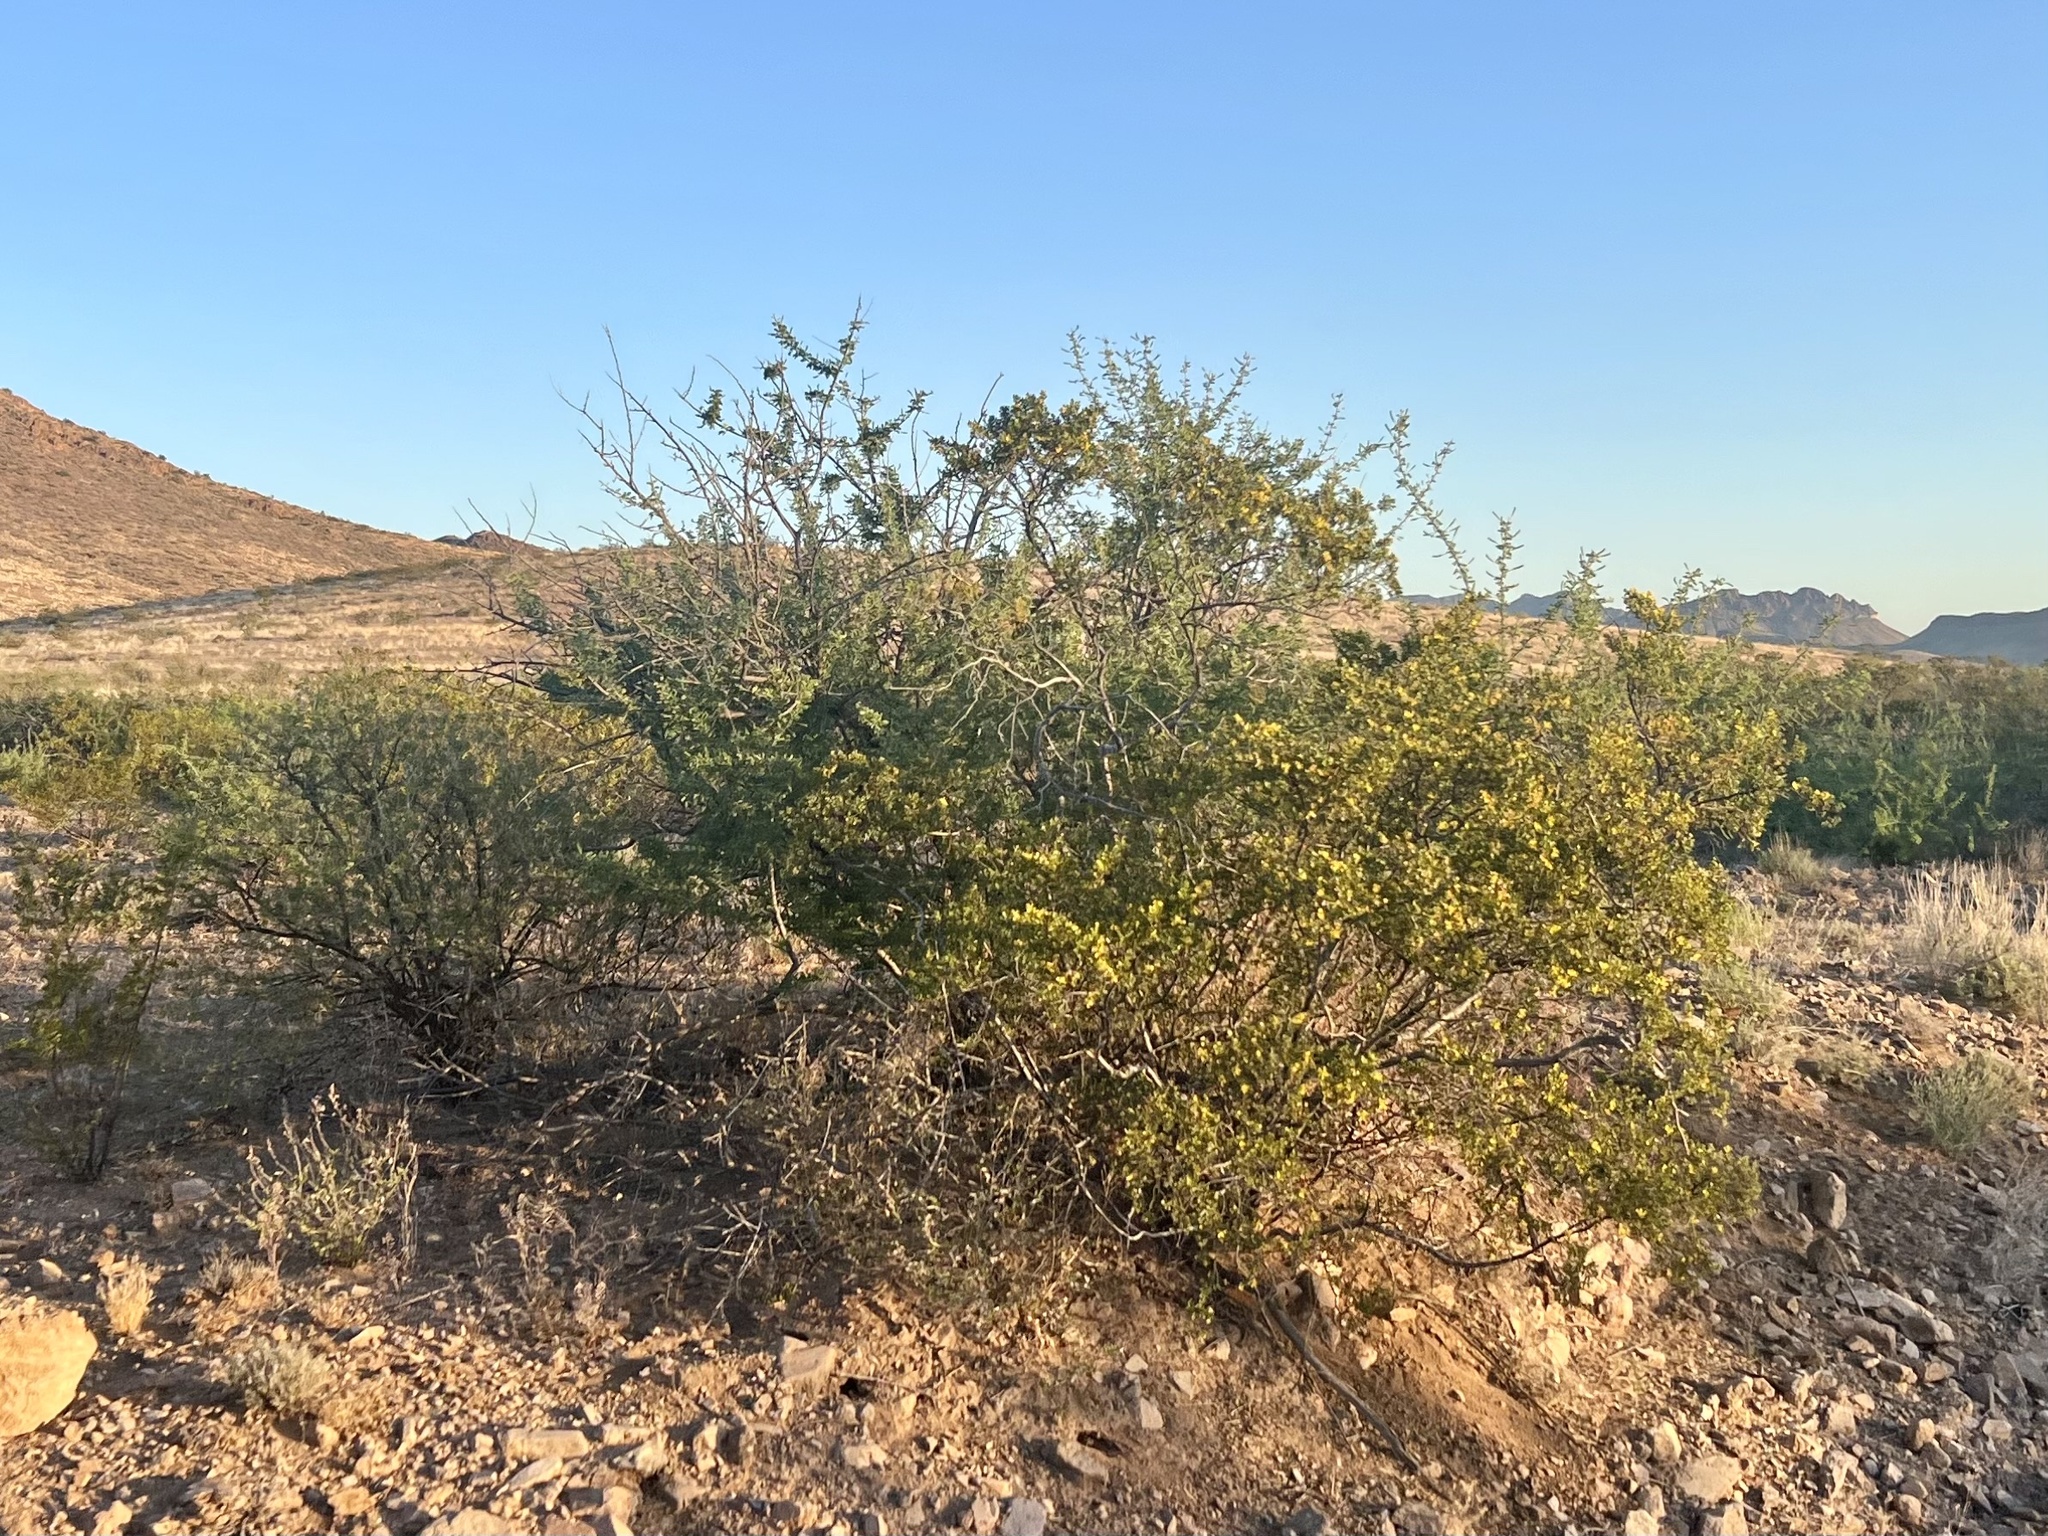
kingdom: Plantae
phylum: Tracheophyta
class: Magnoliopsida
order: Zygophyllales
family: Zygophyllaceae
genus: Larrea
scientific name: Larrea tridentata
